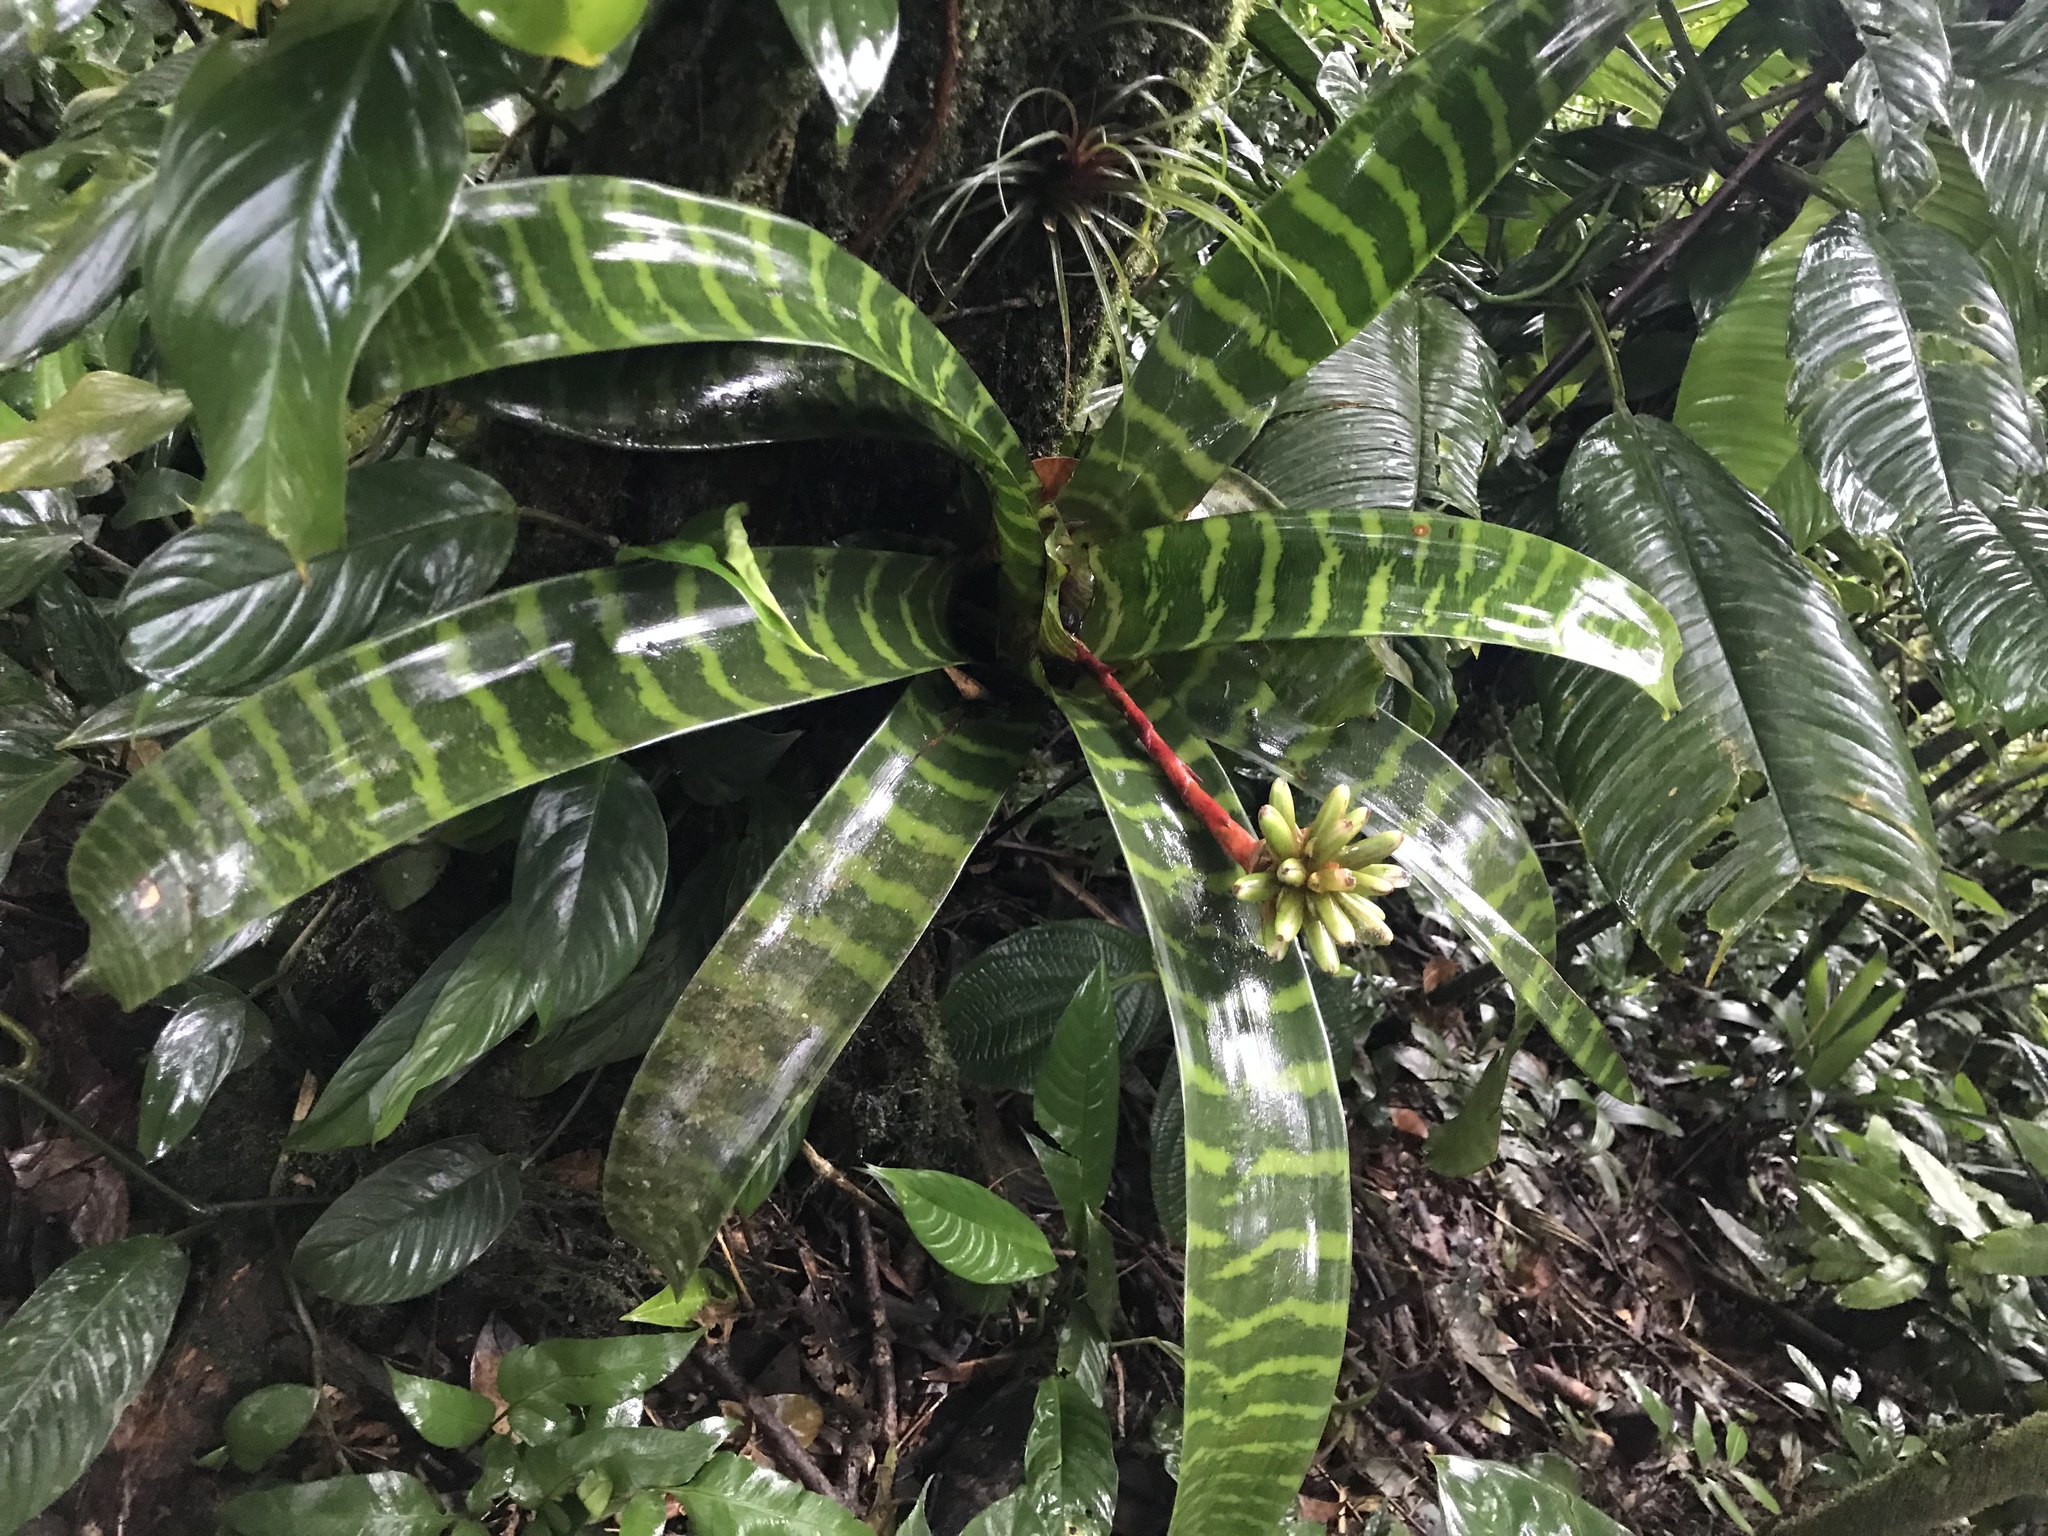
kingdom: Plantae
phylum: Tracheophyta
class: Liliopsida
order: Poales
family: Bromeliaceae
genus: Guzmania
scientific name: Guzmania musaica
